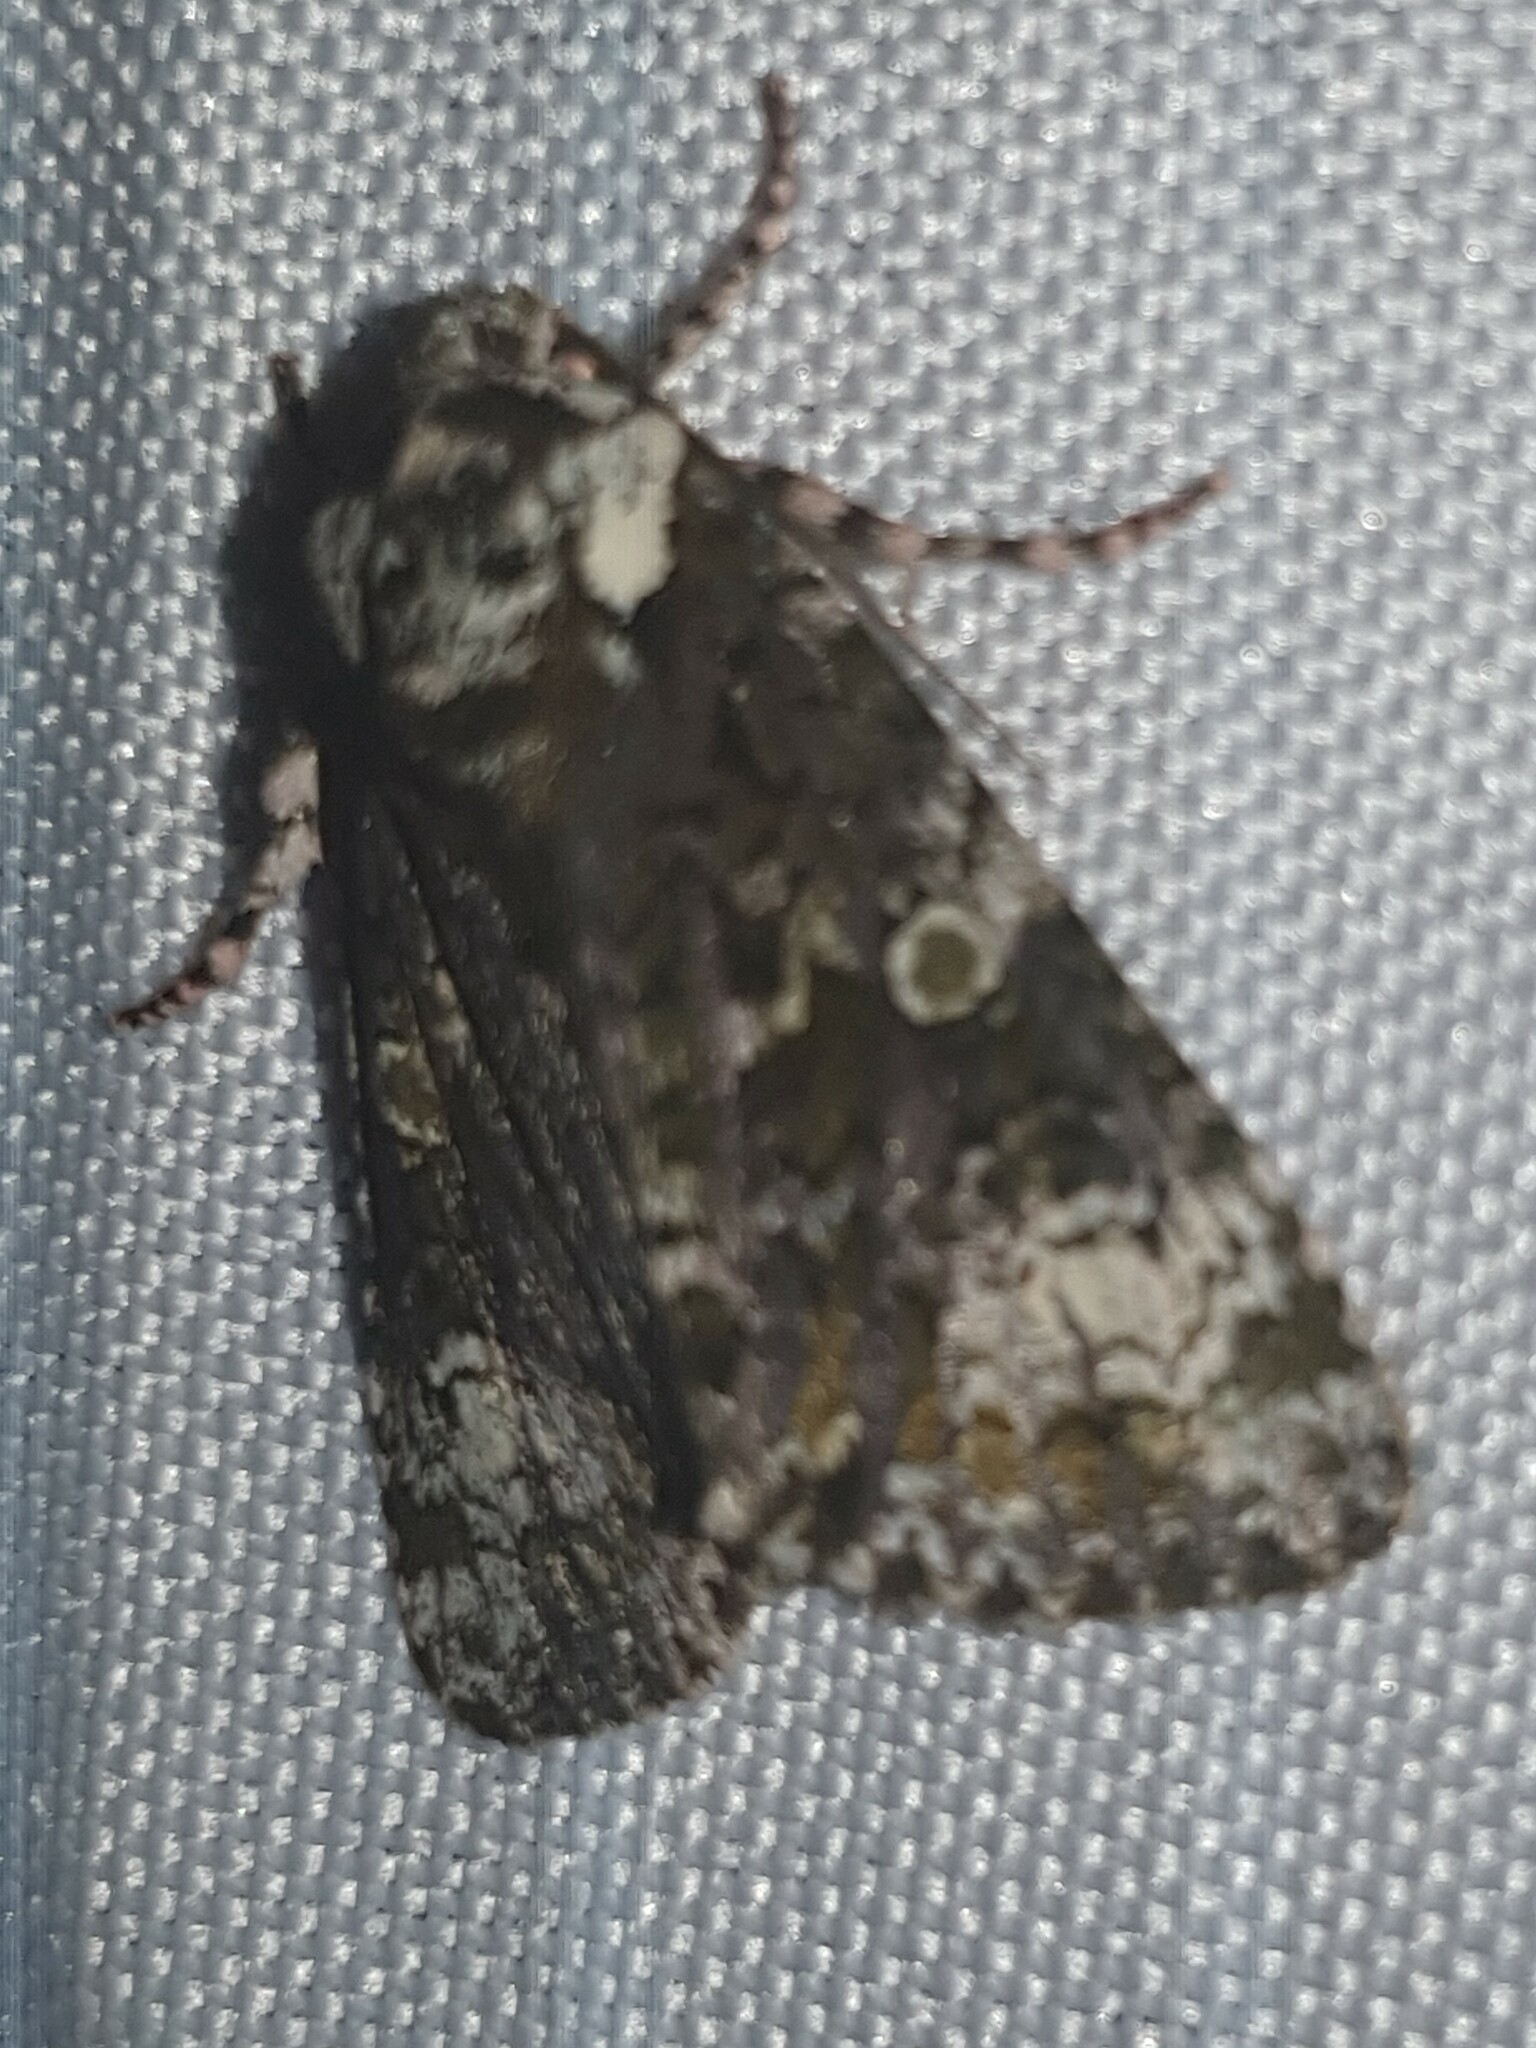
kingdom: Animalia
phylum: Arthropoda
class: Insecta
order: Lepidoptera
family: Noctuidae
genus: Craniophora
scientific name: Craniophora ligustri
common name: Coronet
